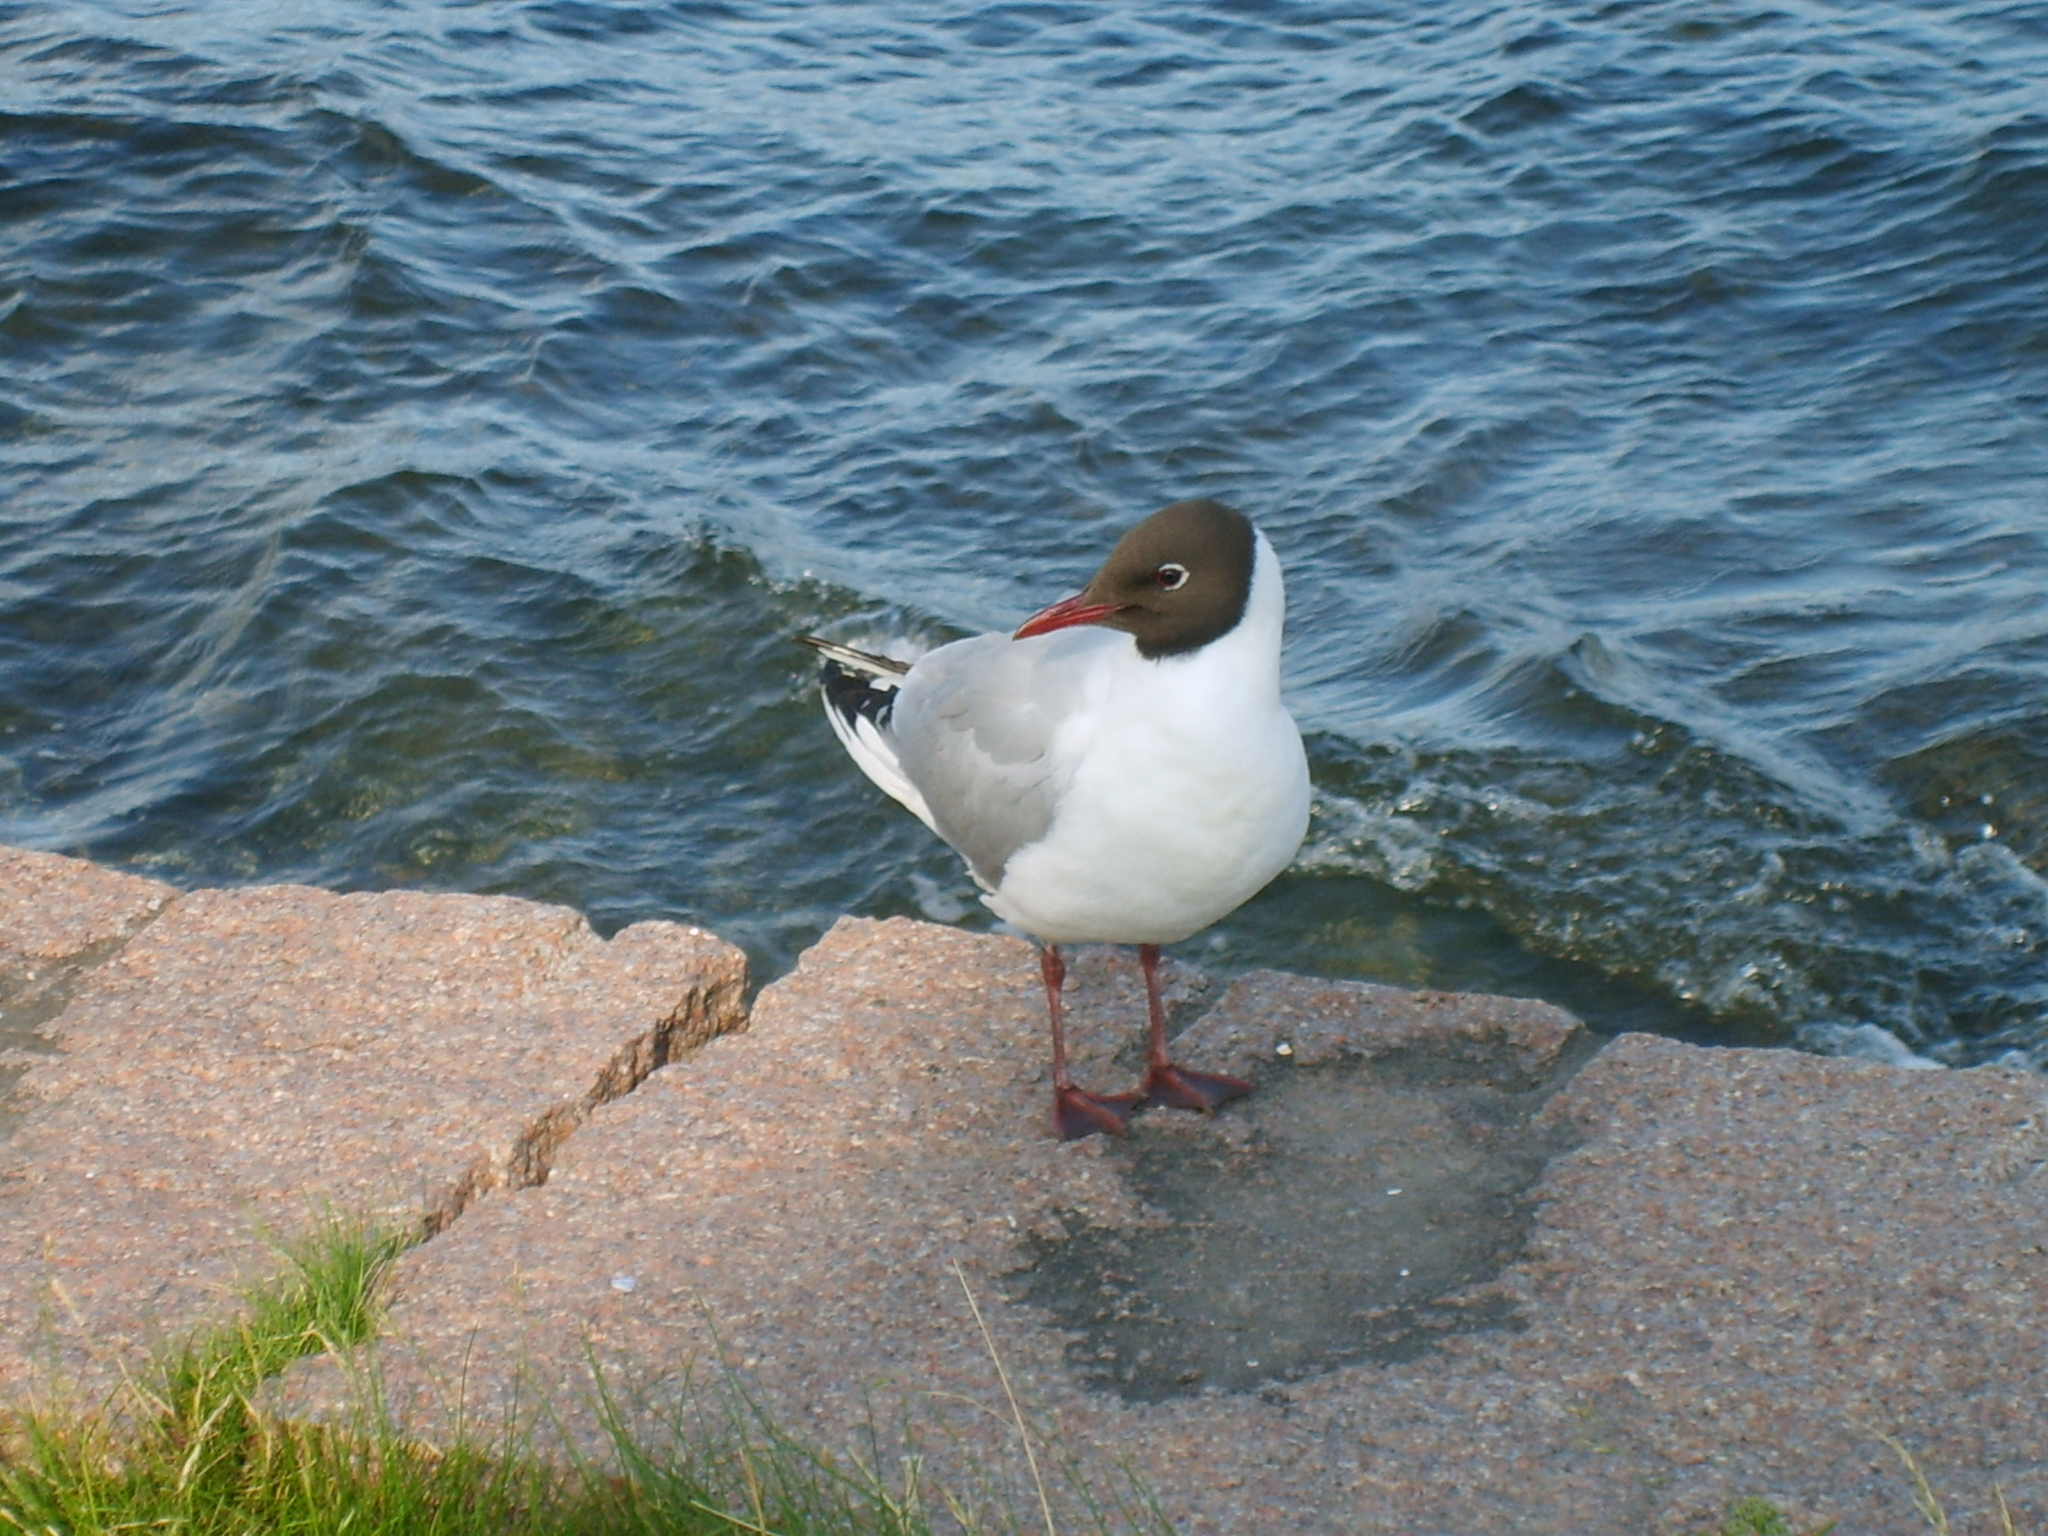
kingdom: Animalia
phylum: Chordata
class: Aves
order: Charadriiformes
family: Laridae
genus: Chroicocephalus
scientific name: Chroicocephalus ridibundus
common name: Black-headed gull
